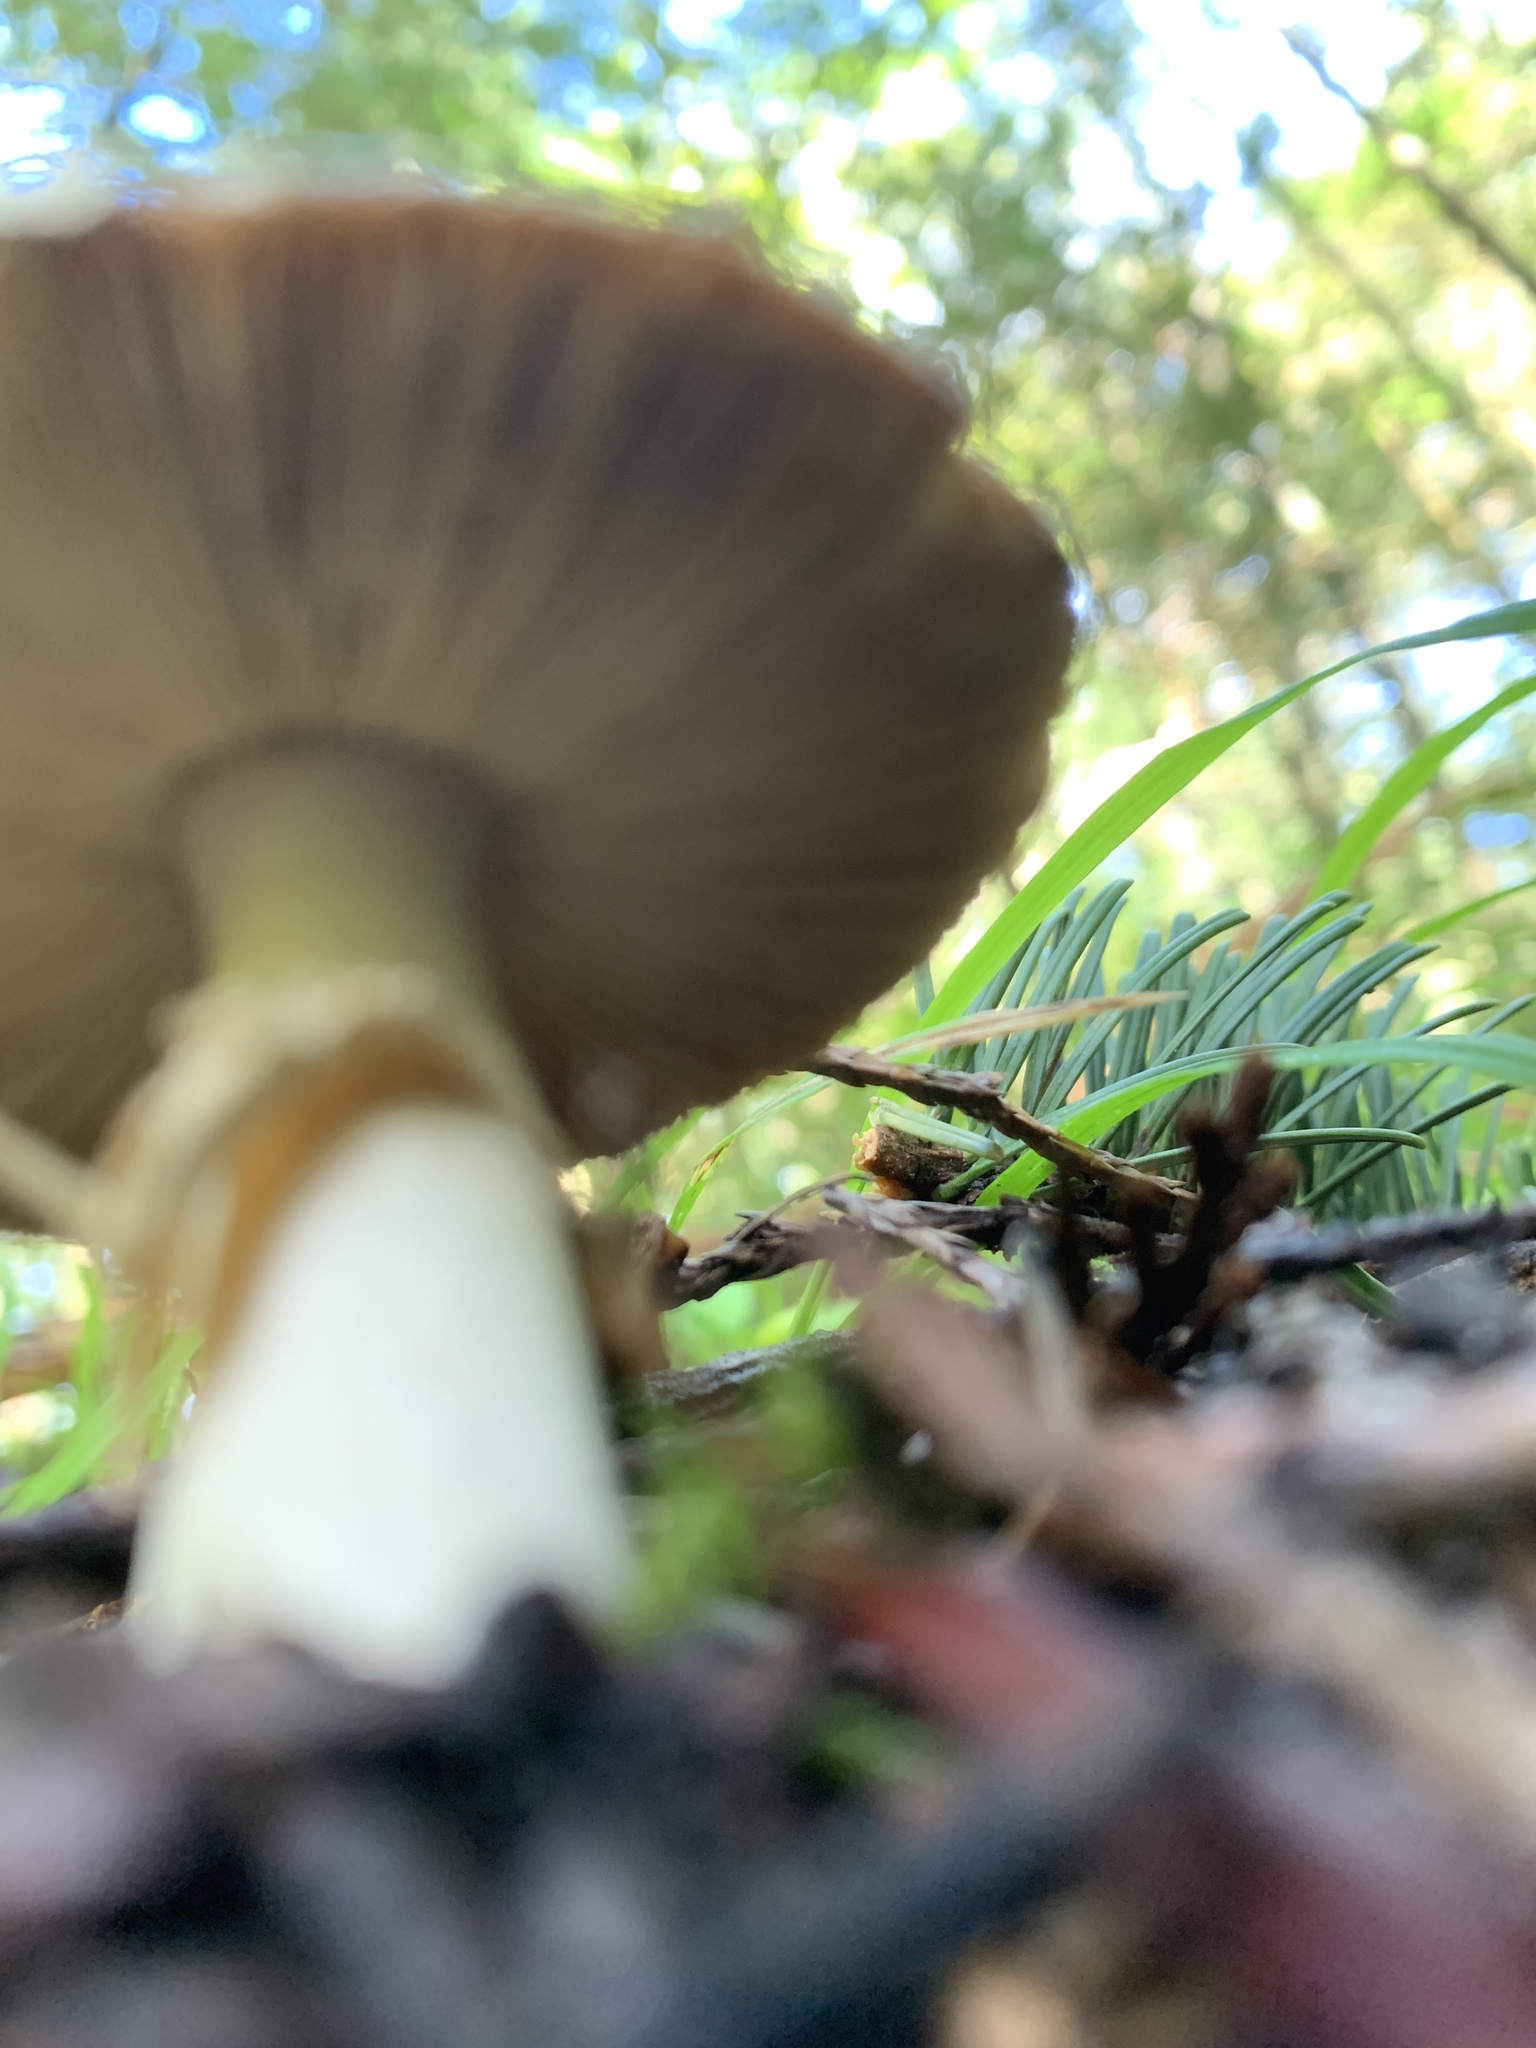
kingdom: Fungi
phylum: Basidiomycota
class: Agaricomycetes
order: Agaricales
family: Amanitaceae
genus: Amanita
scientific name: Amanita pantherinoides
